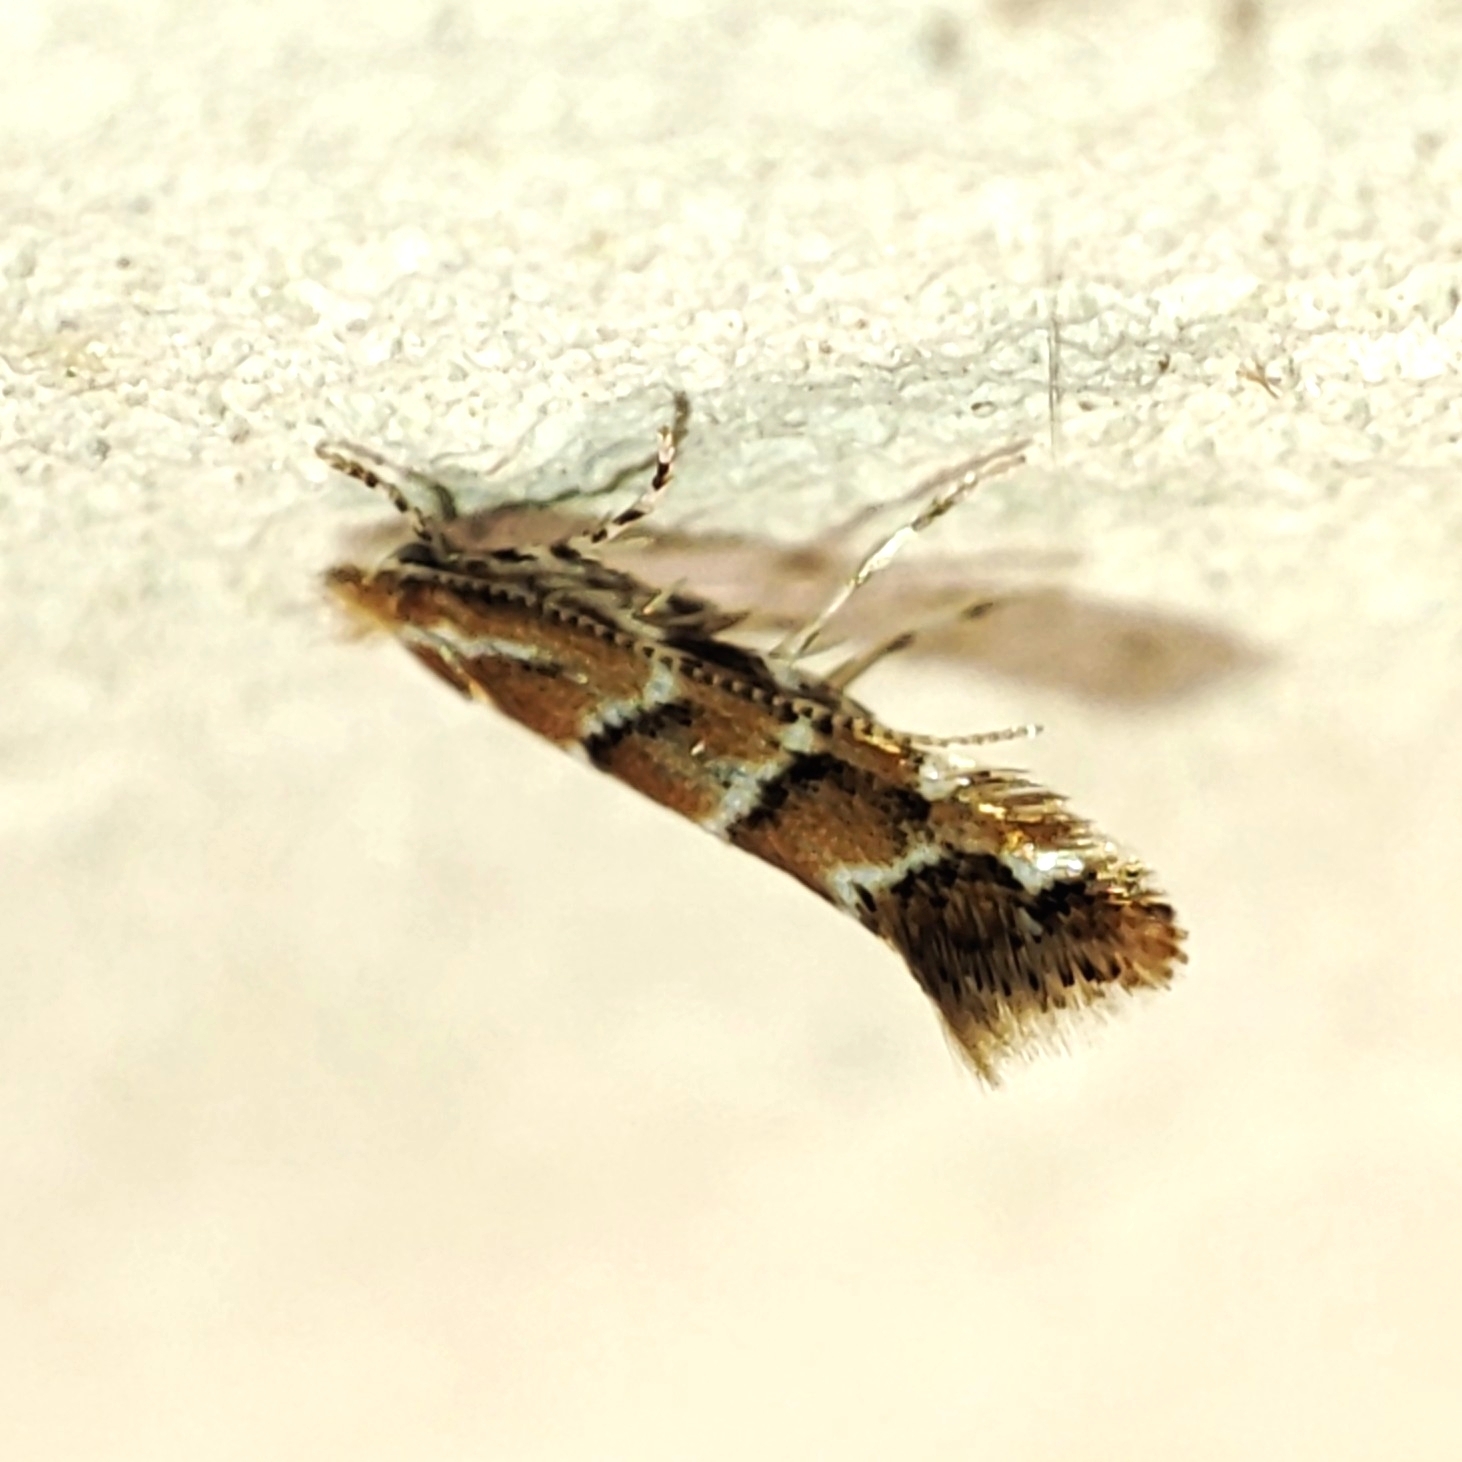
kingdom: Animalia
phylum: Arthropoda
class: Insecta
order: Lepidoptera
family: Gracillariidae
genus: Cameraria
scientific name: Cameraria ohridella
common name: Horse-chestnut leaf-miner
